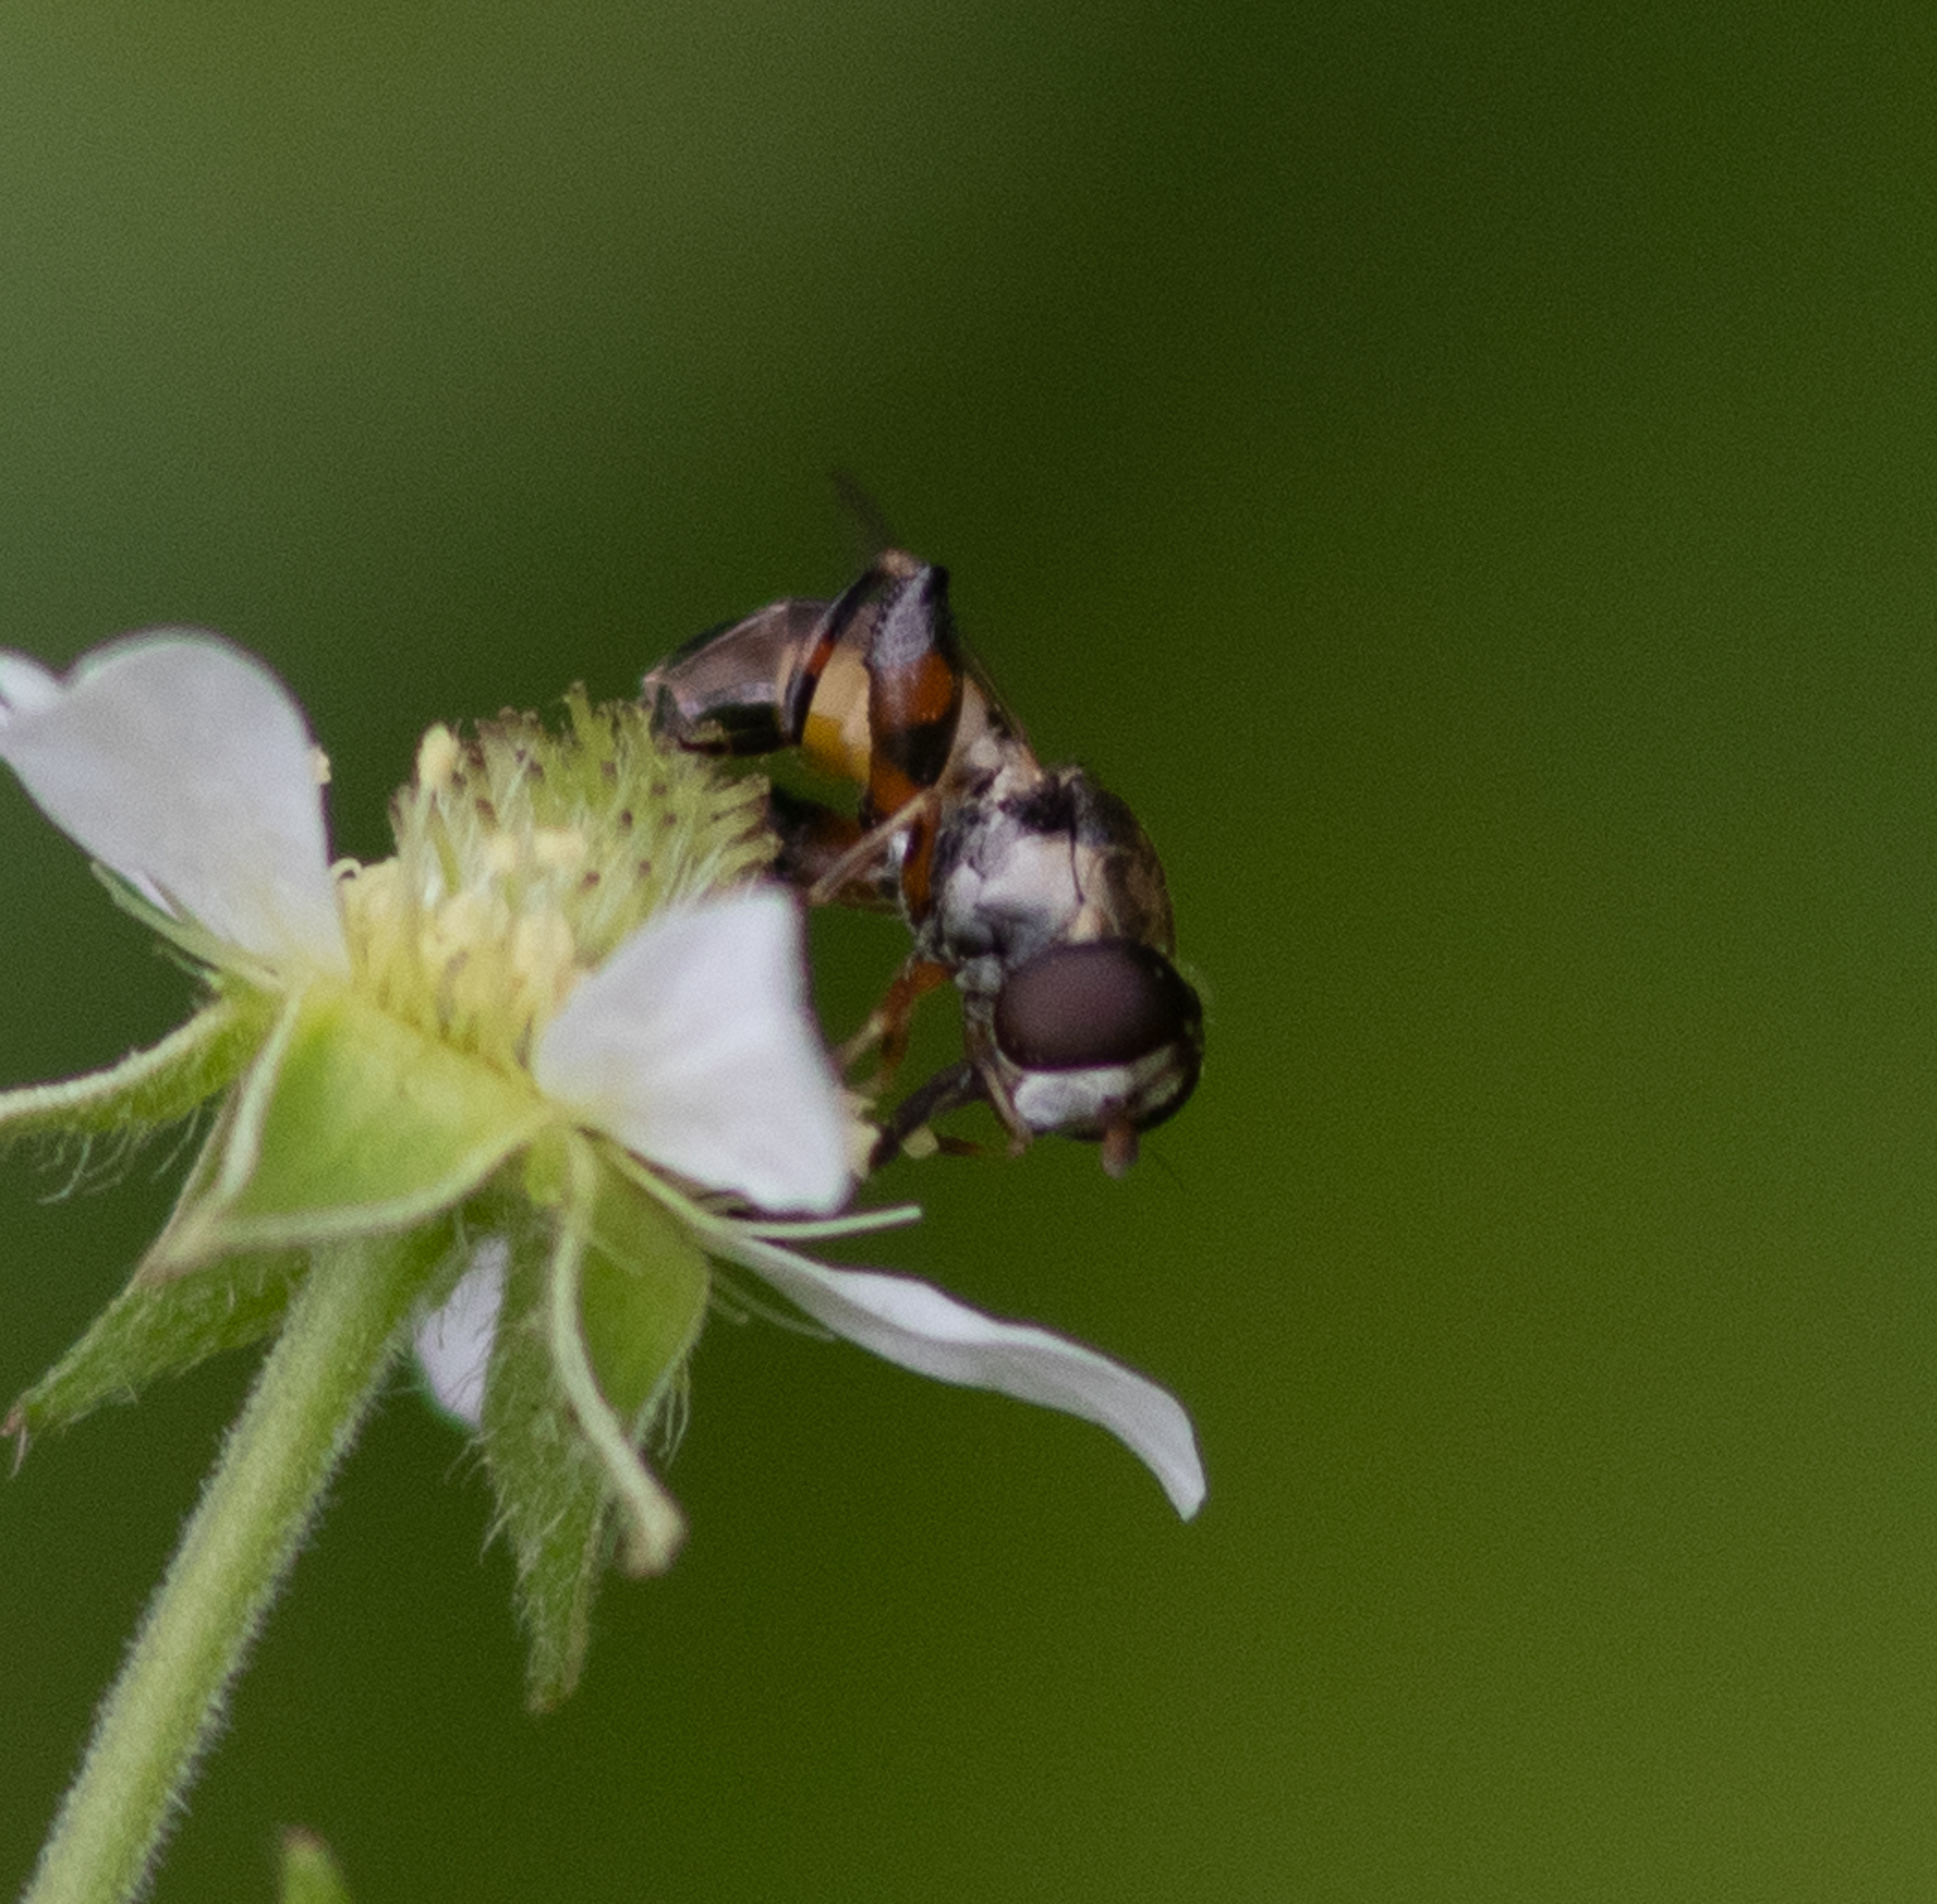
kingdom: Animalia
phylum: Arthropoda
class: Insecta
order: Diptera
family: Syrphidae
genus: Syritta
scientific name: Syritta pipiens
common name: Hover fly
